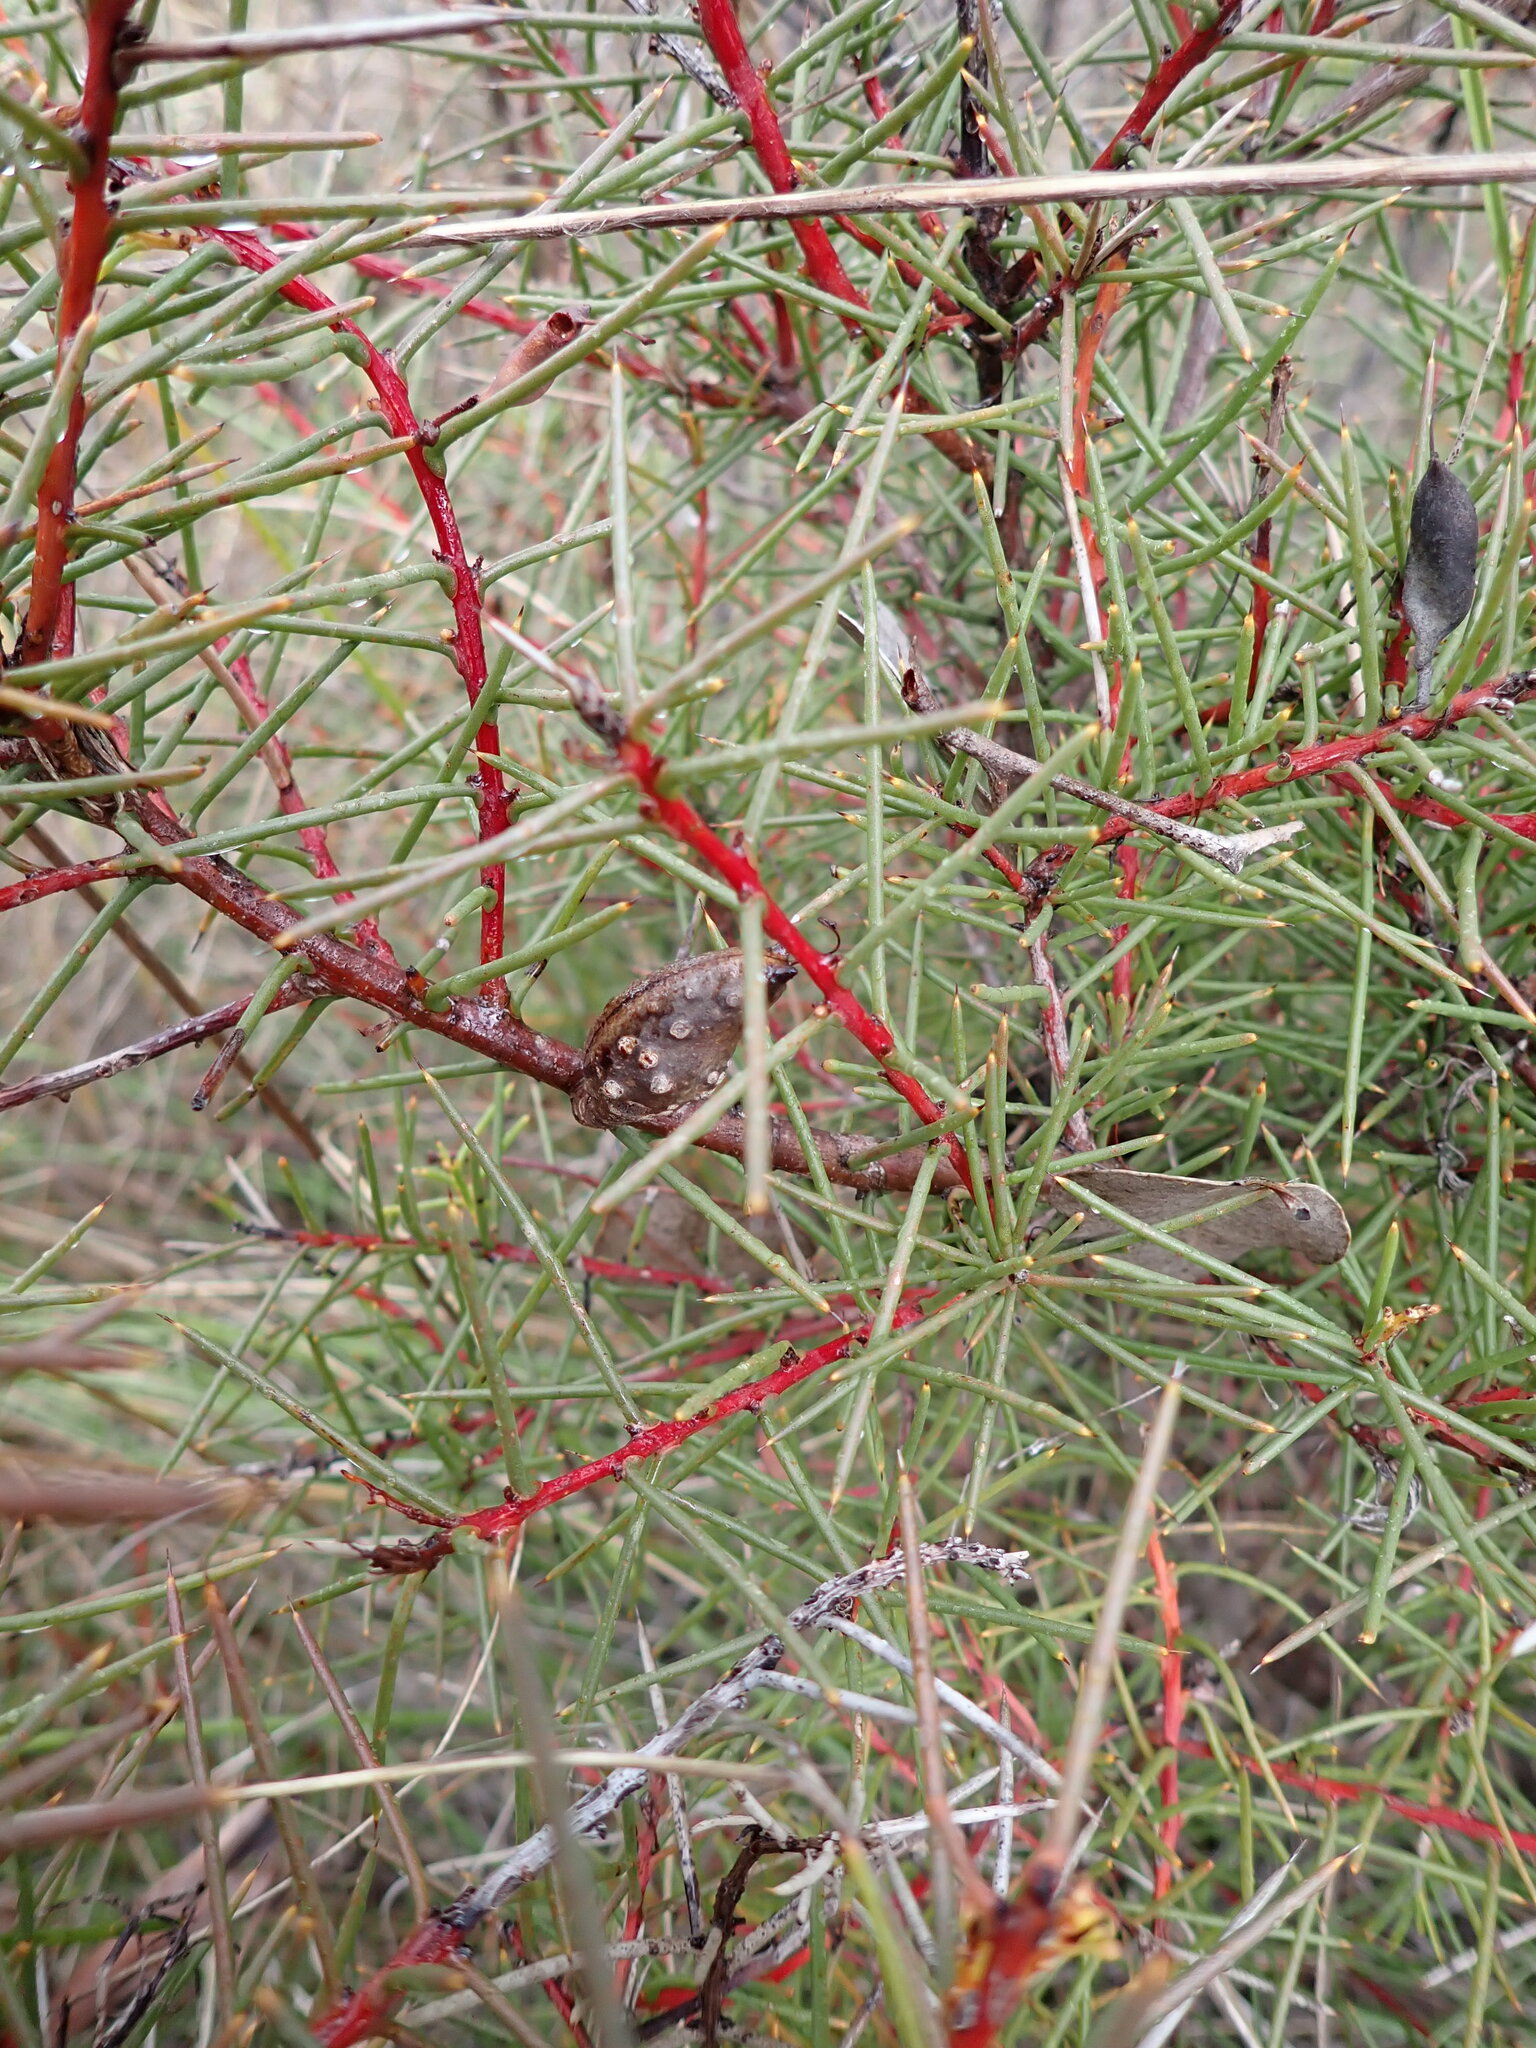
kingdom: Plantae
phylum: Tracheophyta
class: Magnoliopsida
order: Proteales
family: Proteaceae
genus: Hakea
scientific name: Hakea decurrens
